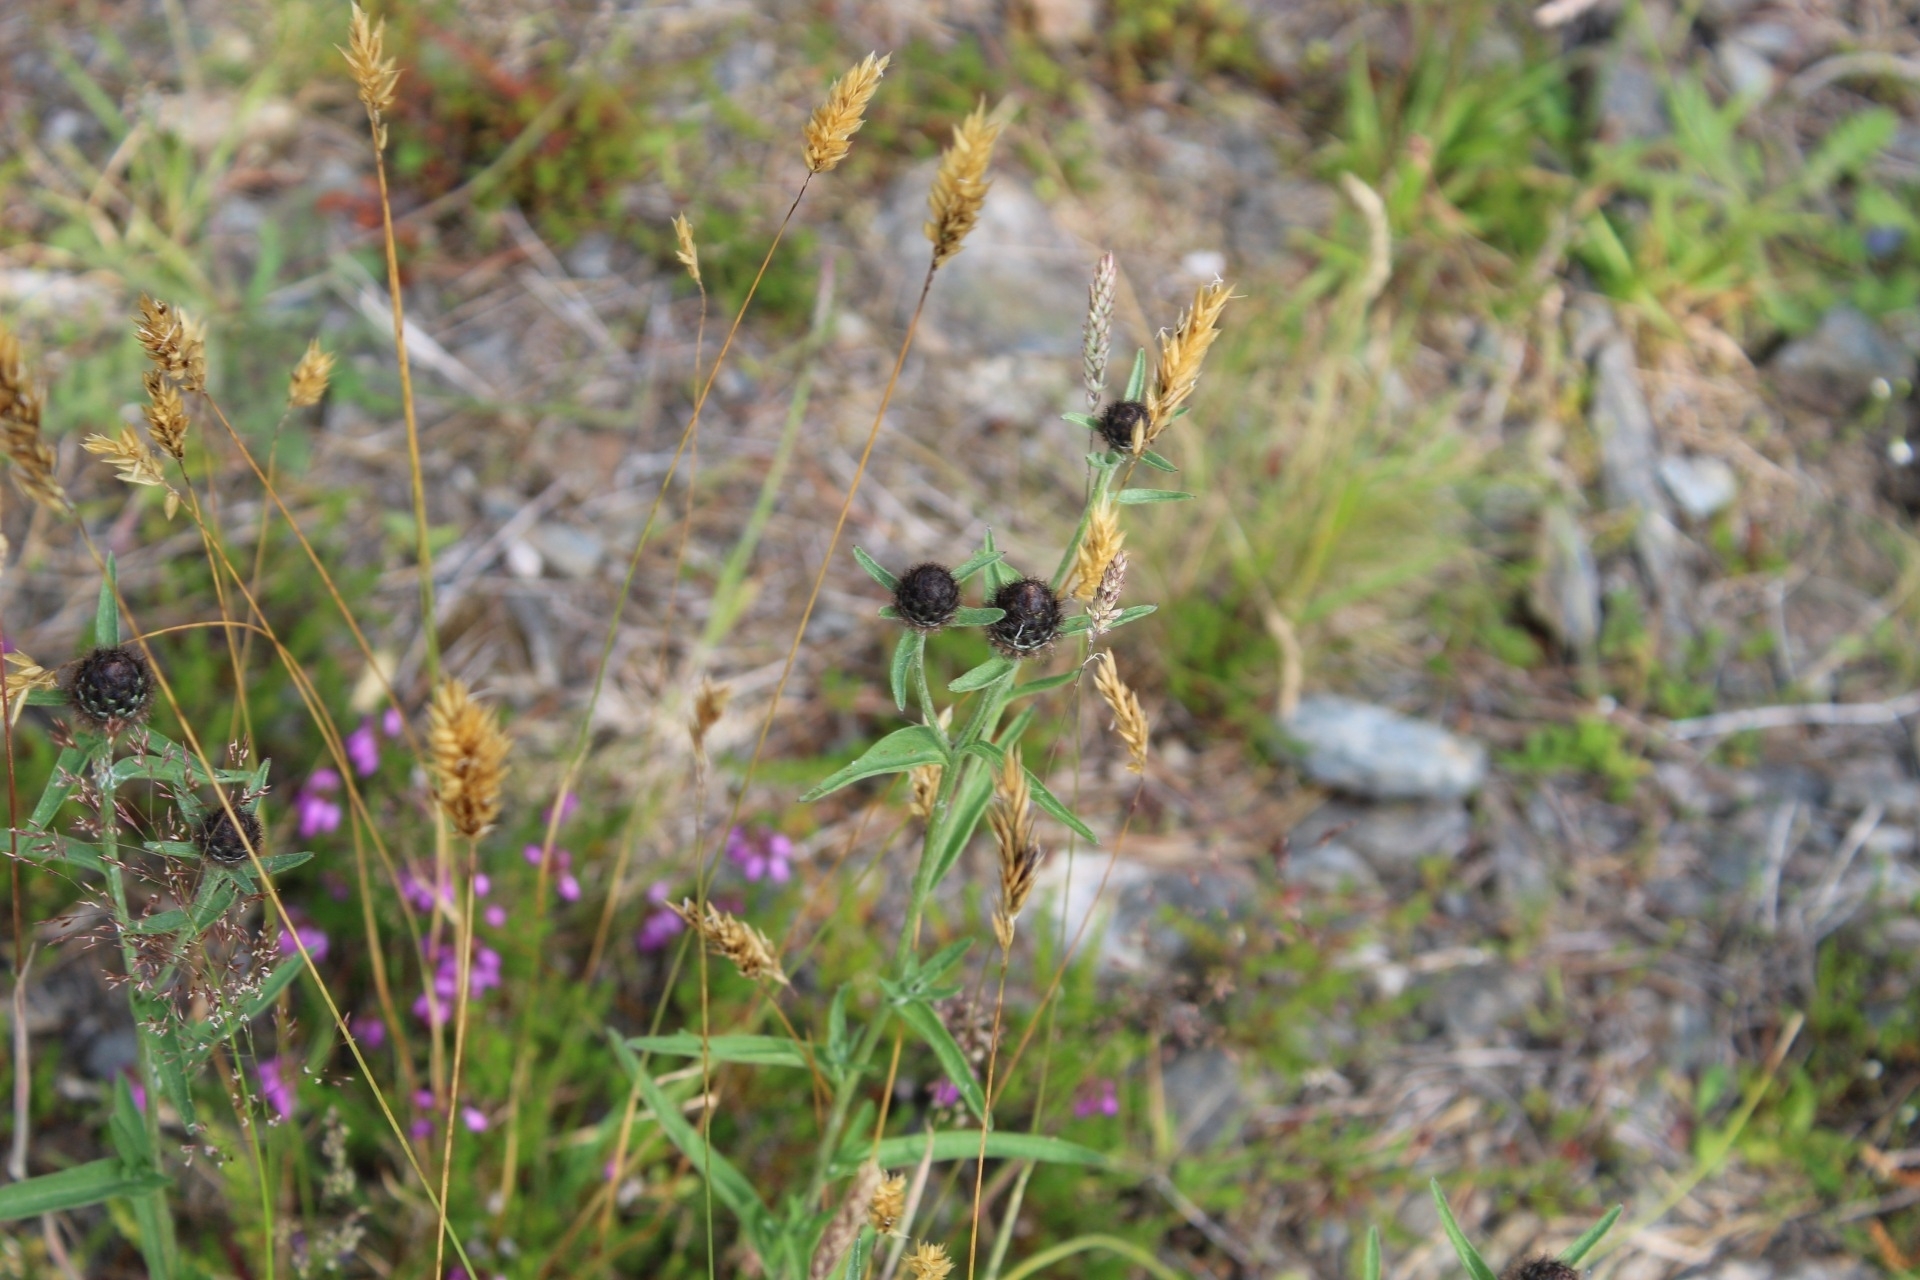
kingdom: Plantae
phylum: Tracheophyta
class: Magnoliopsida
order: Asterales
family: Asteraceae
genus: Centaurea
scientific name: Centaurea nigra
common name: Lesser knapweed
